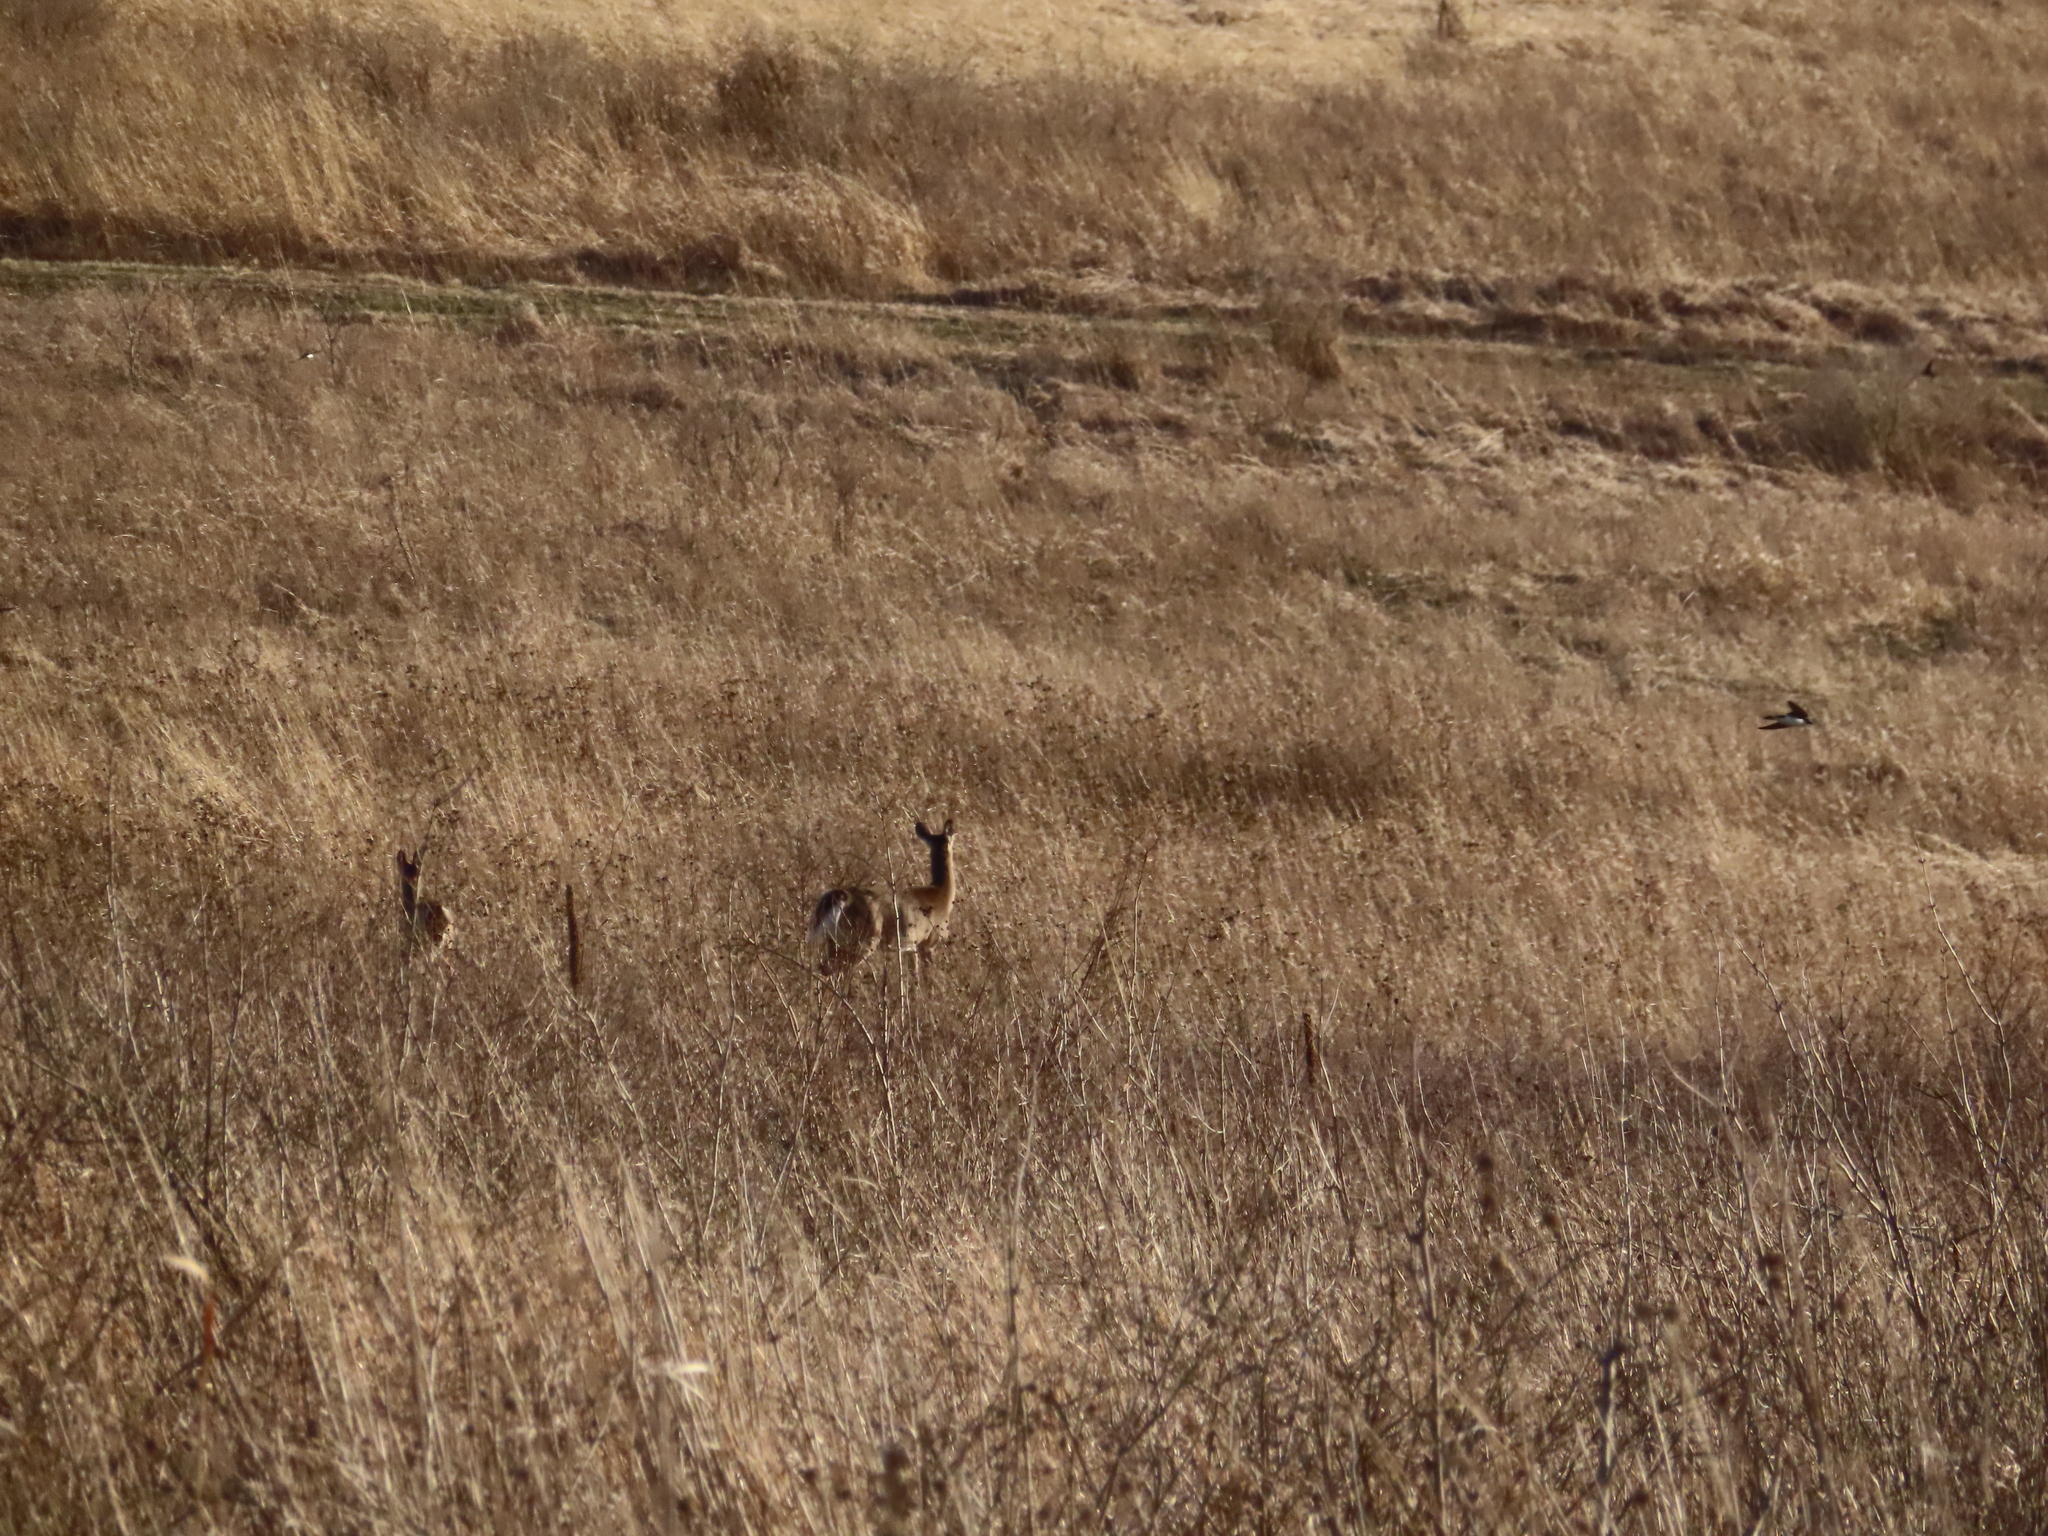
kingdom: Animalia
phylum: Chordata
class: Mammalia
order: Artiodactyla
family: Cervidae
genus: Odocoileus
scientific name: Odocoileus virginianus
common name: White-tailed deer
